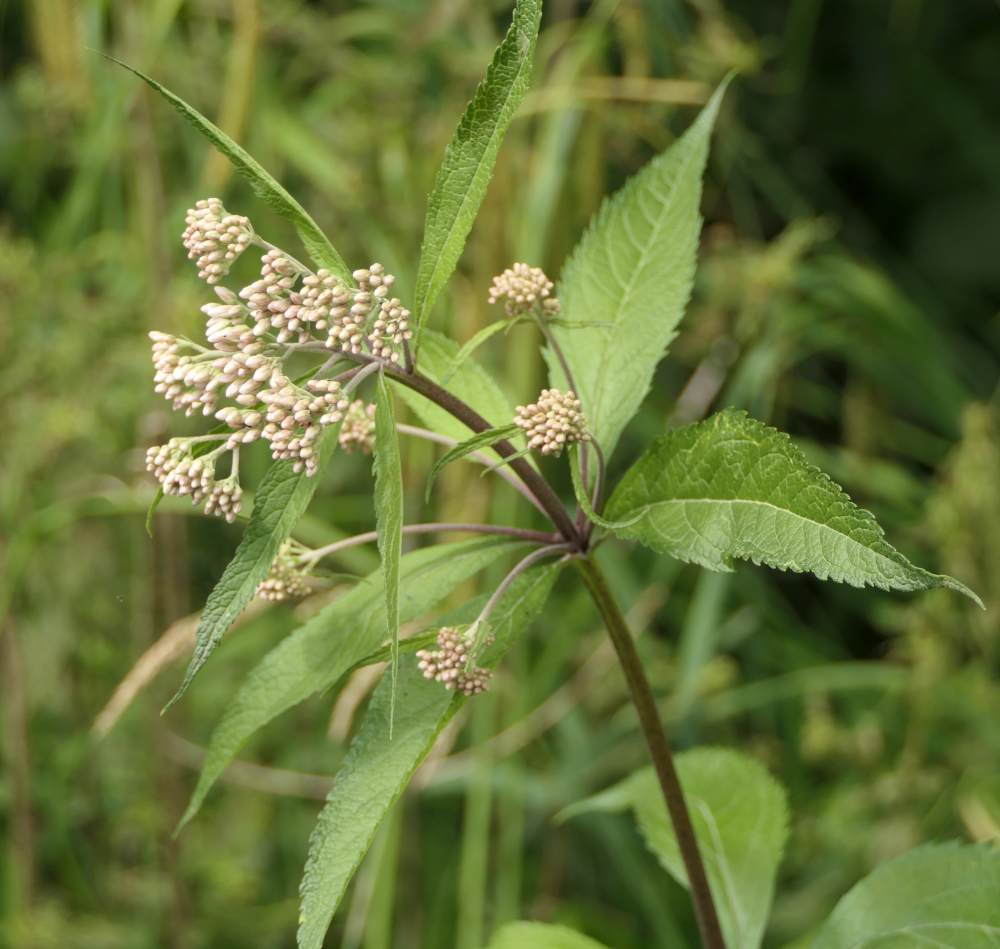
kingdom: Plantae
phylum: Tracheophyta
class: Magnoliopsida
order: Asterales
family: Asteraceae
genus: Eutrochium
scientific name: Eutrochium maculatum
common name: Spotted joe pye weed
